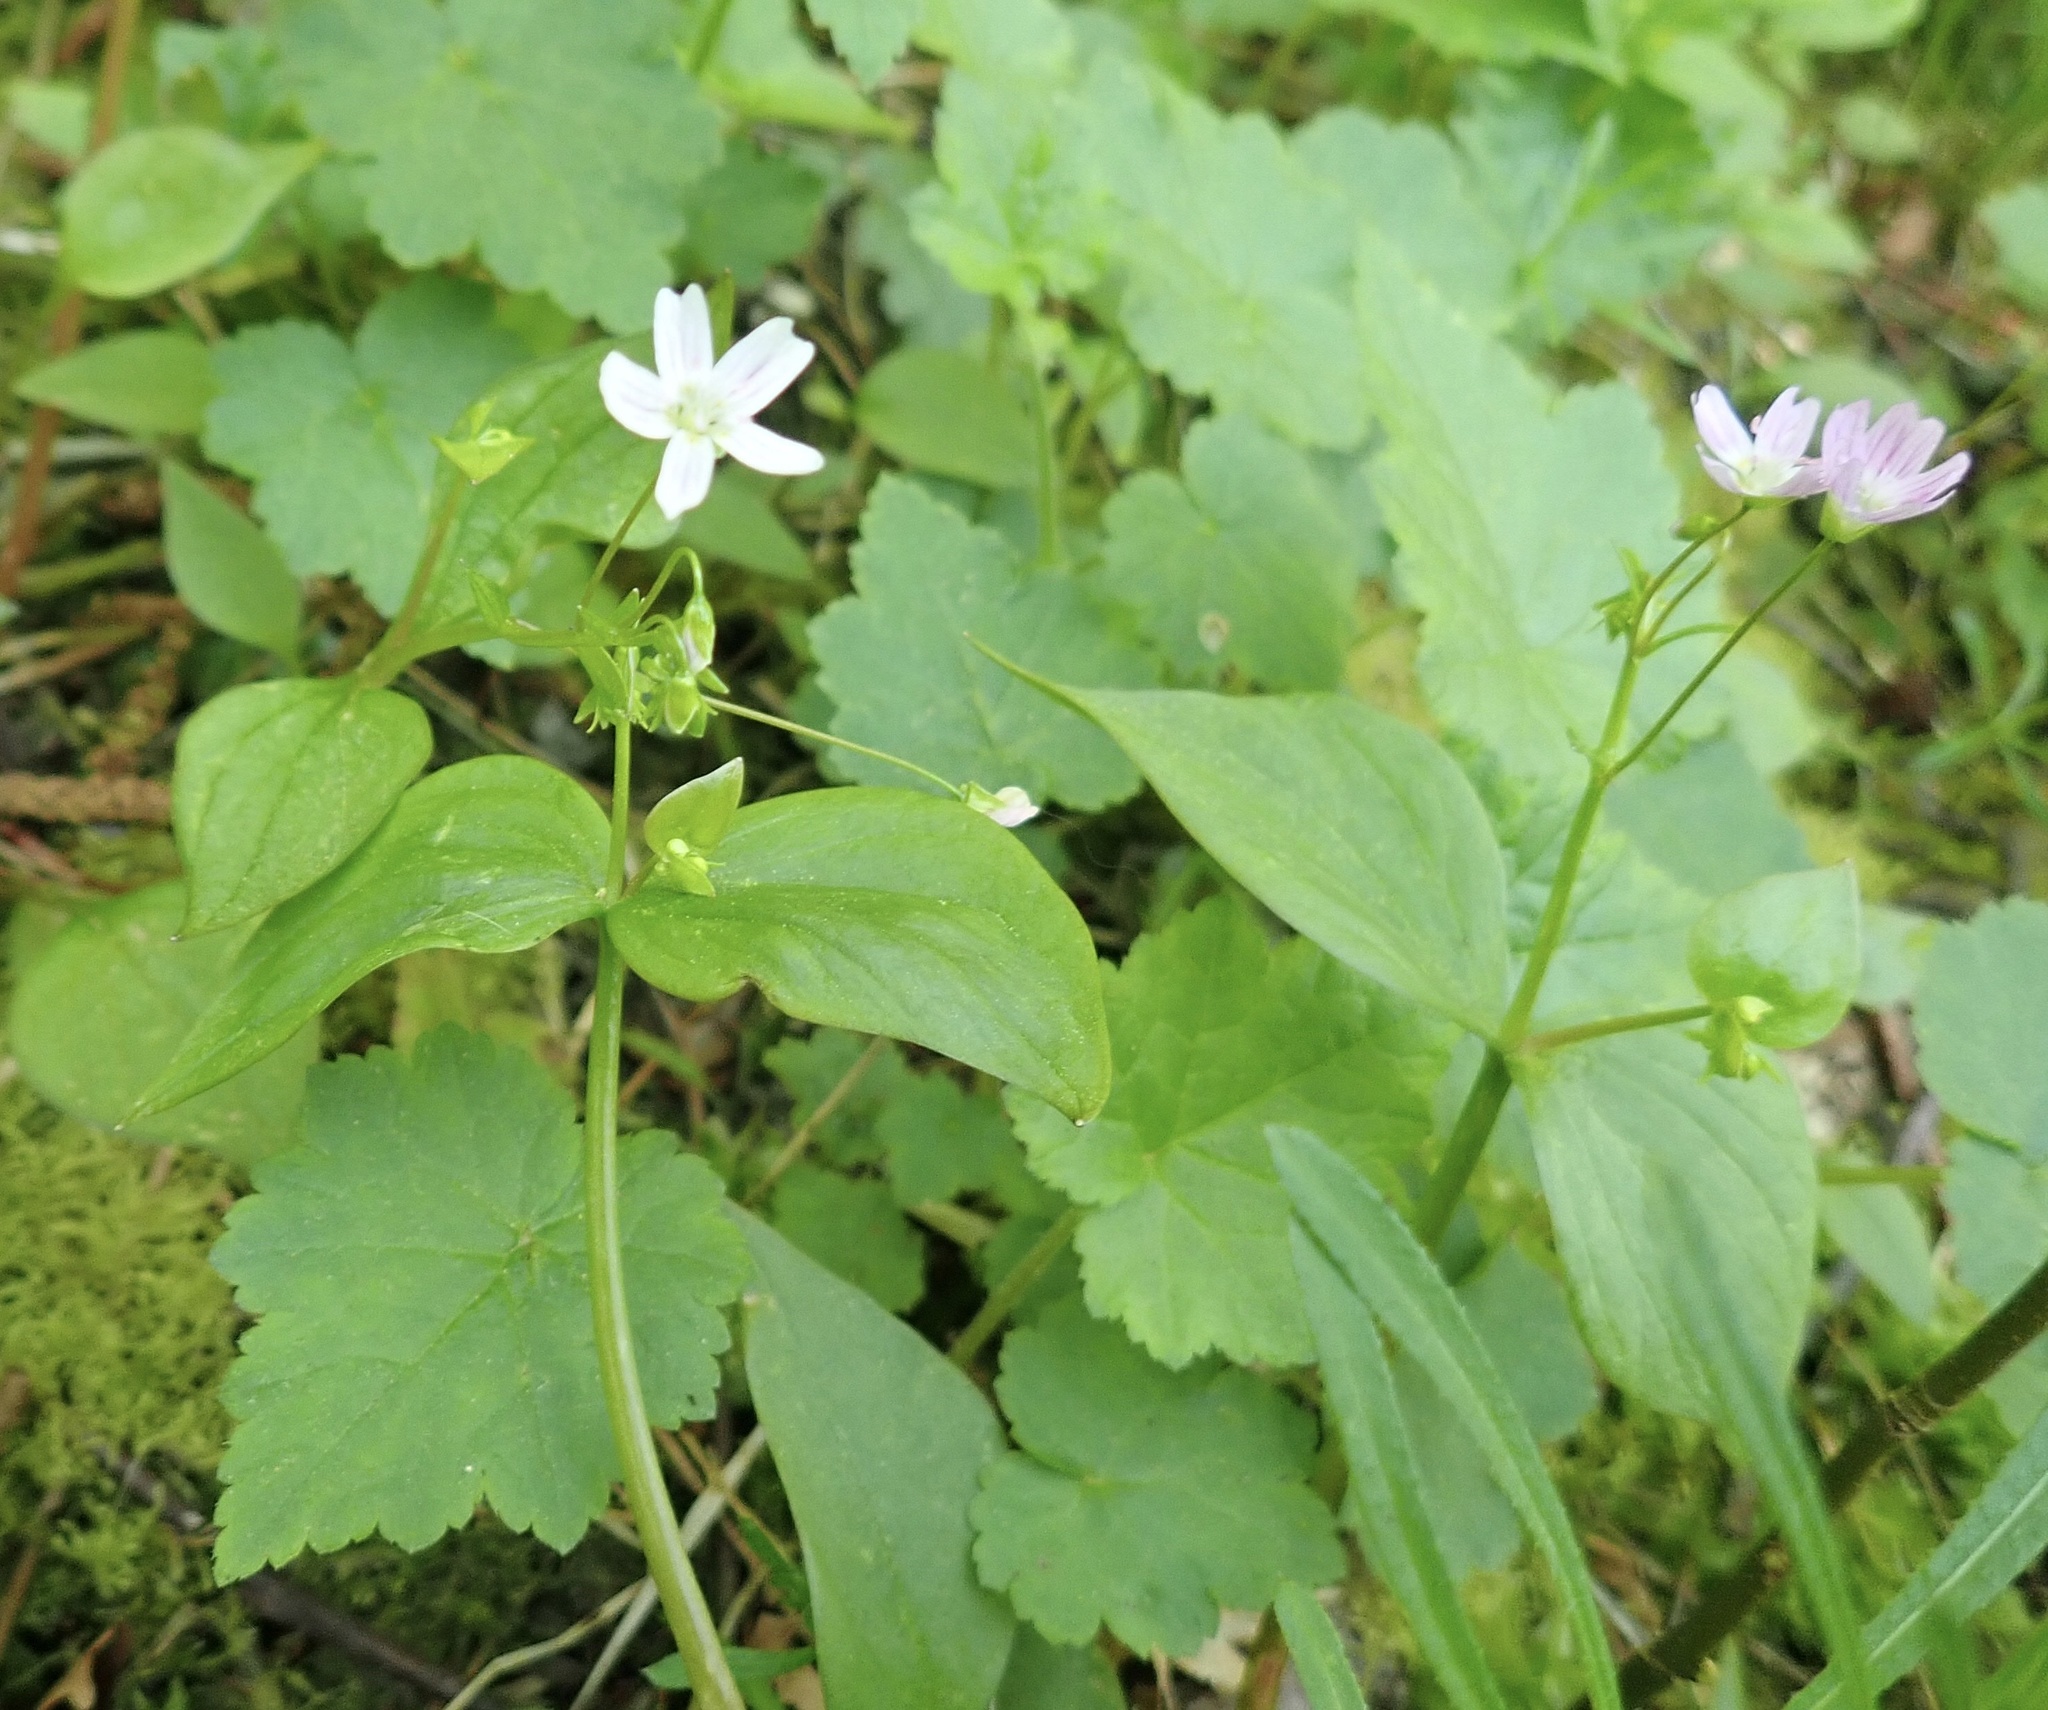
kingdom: Plantae
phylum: Tracheophyta
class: Magnoliopsida
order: Caryophyllales
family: Montiaceae
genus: Claytonia
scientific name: Claytonia sibirica
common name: Pink purslane
